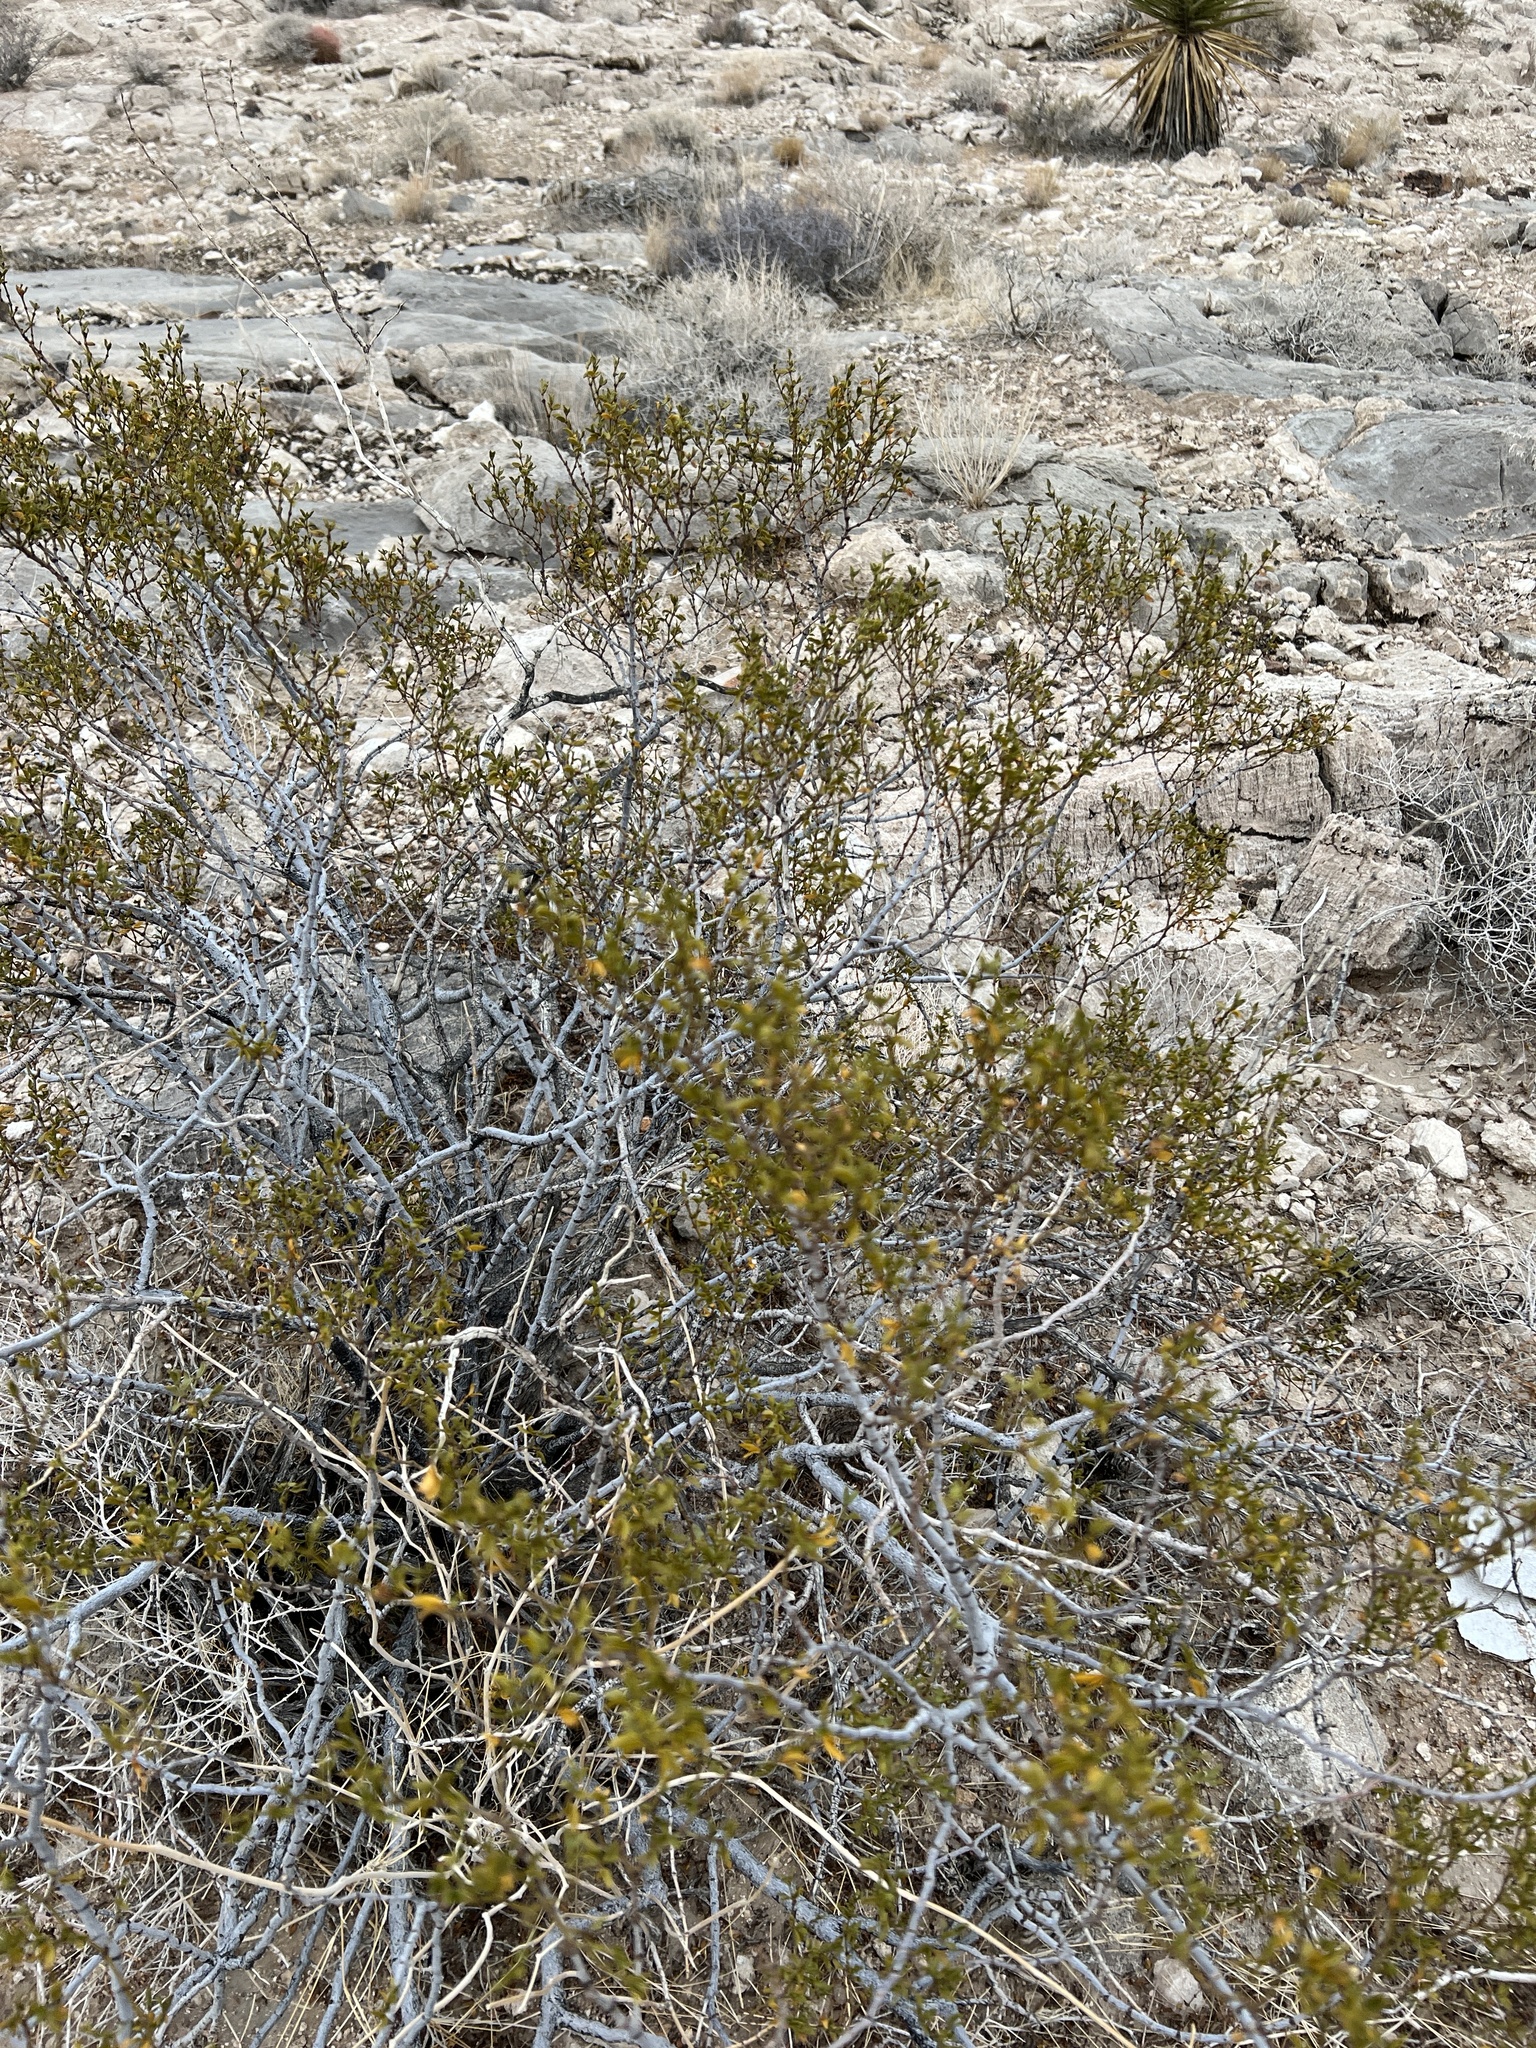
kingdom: Plantae
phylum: Tracheophyta
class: Magnoliopsida
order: Zygophyllales
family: Zygophyllaceae
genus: Larrea
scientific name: Larrea tridentata
